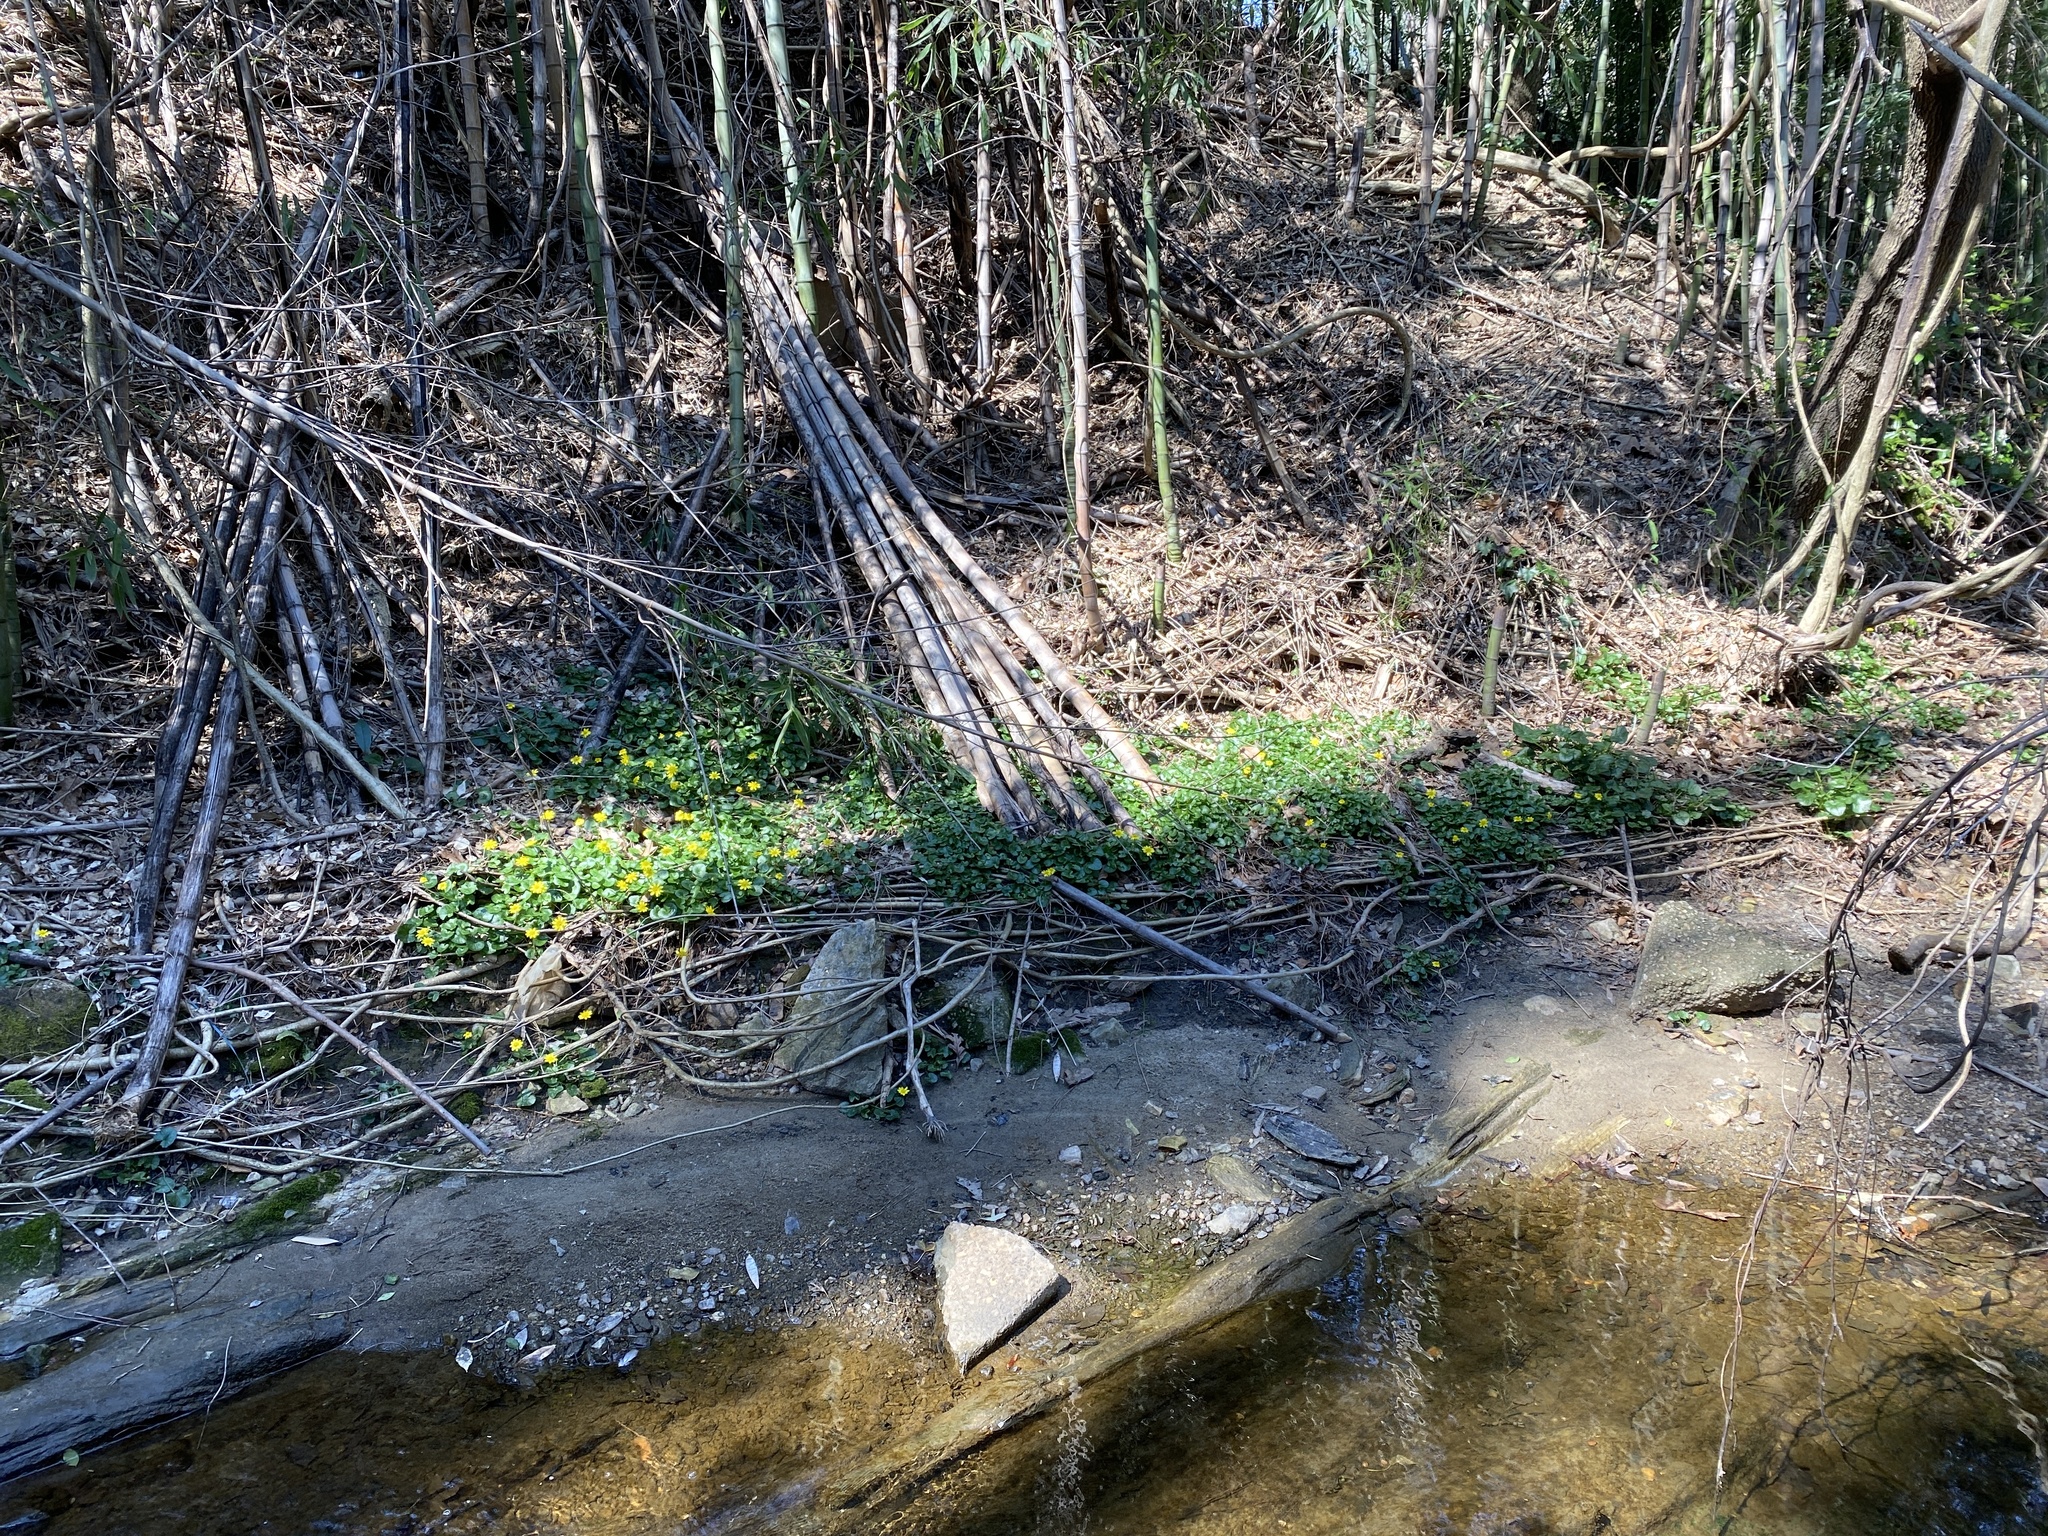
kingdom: Plantae
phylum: Tracheophyta
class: Magnoliopsida
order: Ranunculales
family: Ranunculaceae
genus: Ficaria
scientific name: Ficaria verna
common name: Lesser celandine
